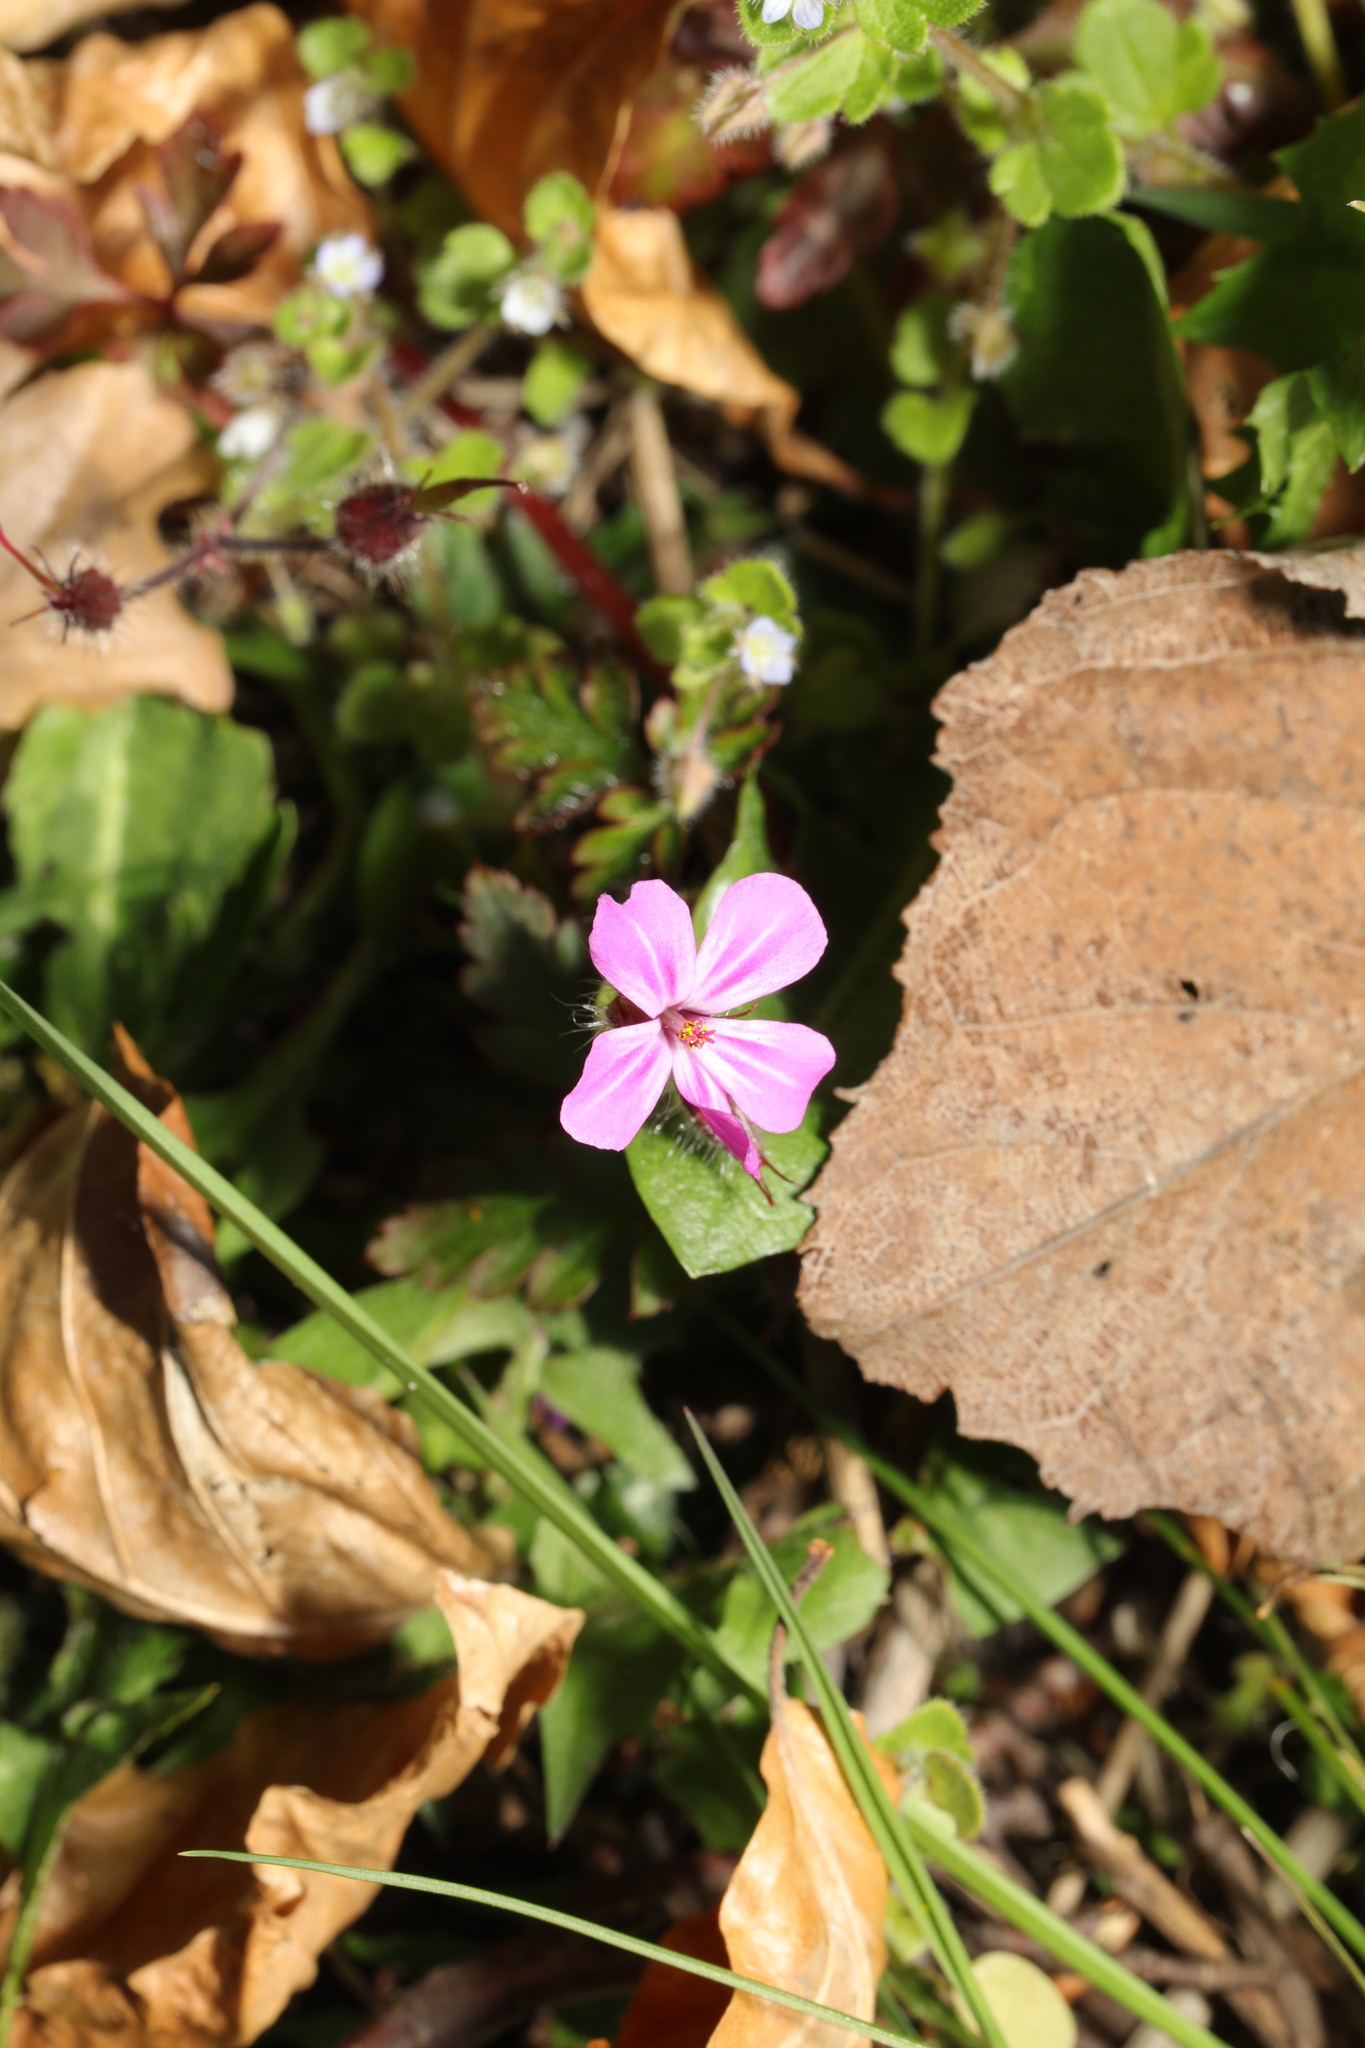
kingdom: Plantae
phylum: Tracheophyta
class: Magnoliopsida
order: Geraniales
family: Geraniaceae
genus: Geranium
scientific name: Geranium robertianum
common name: Herb-robert
